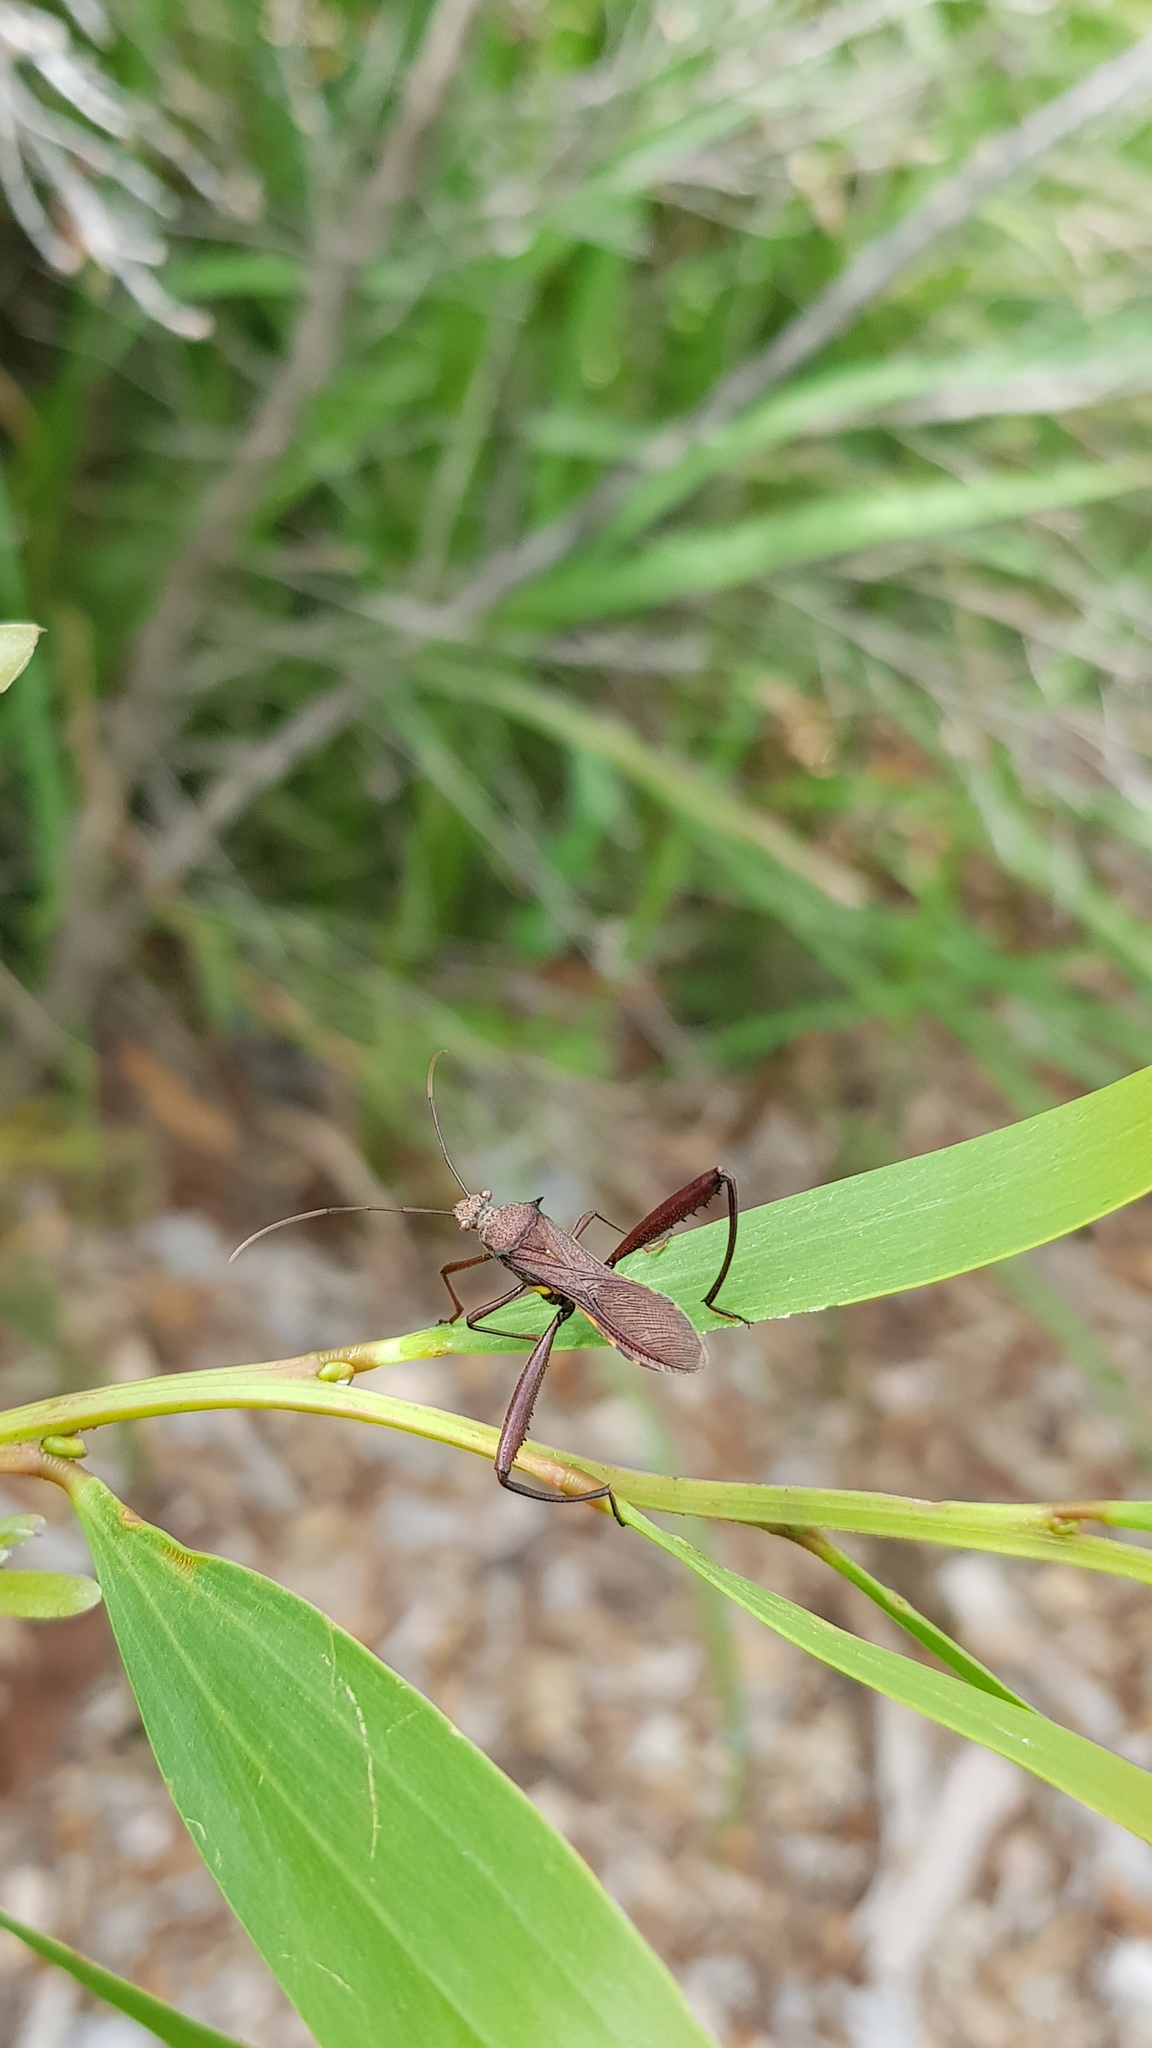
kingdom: Animalia
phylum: Arthropoda
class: Insecta
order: Hemiptera
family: Alydidae
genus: Riptortus
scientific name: Riptortus serripes
